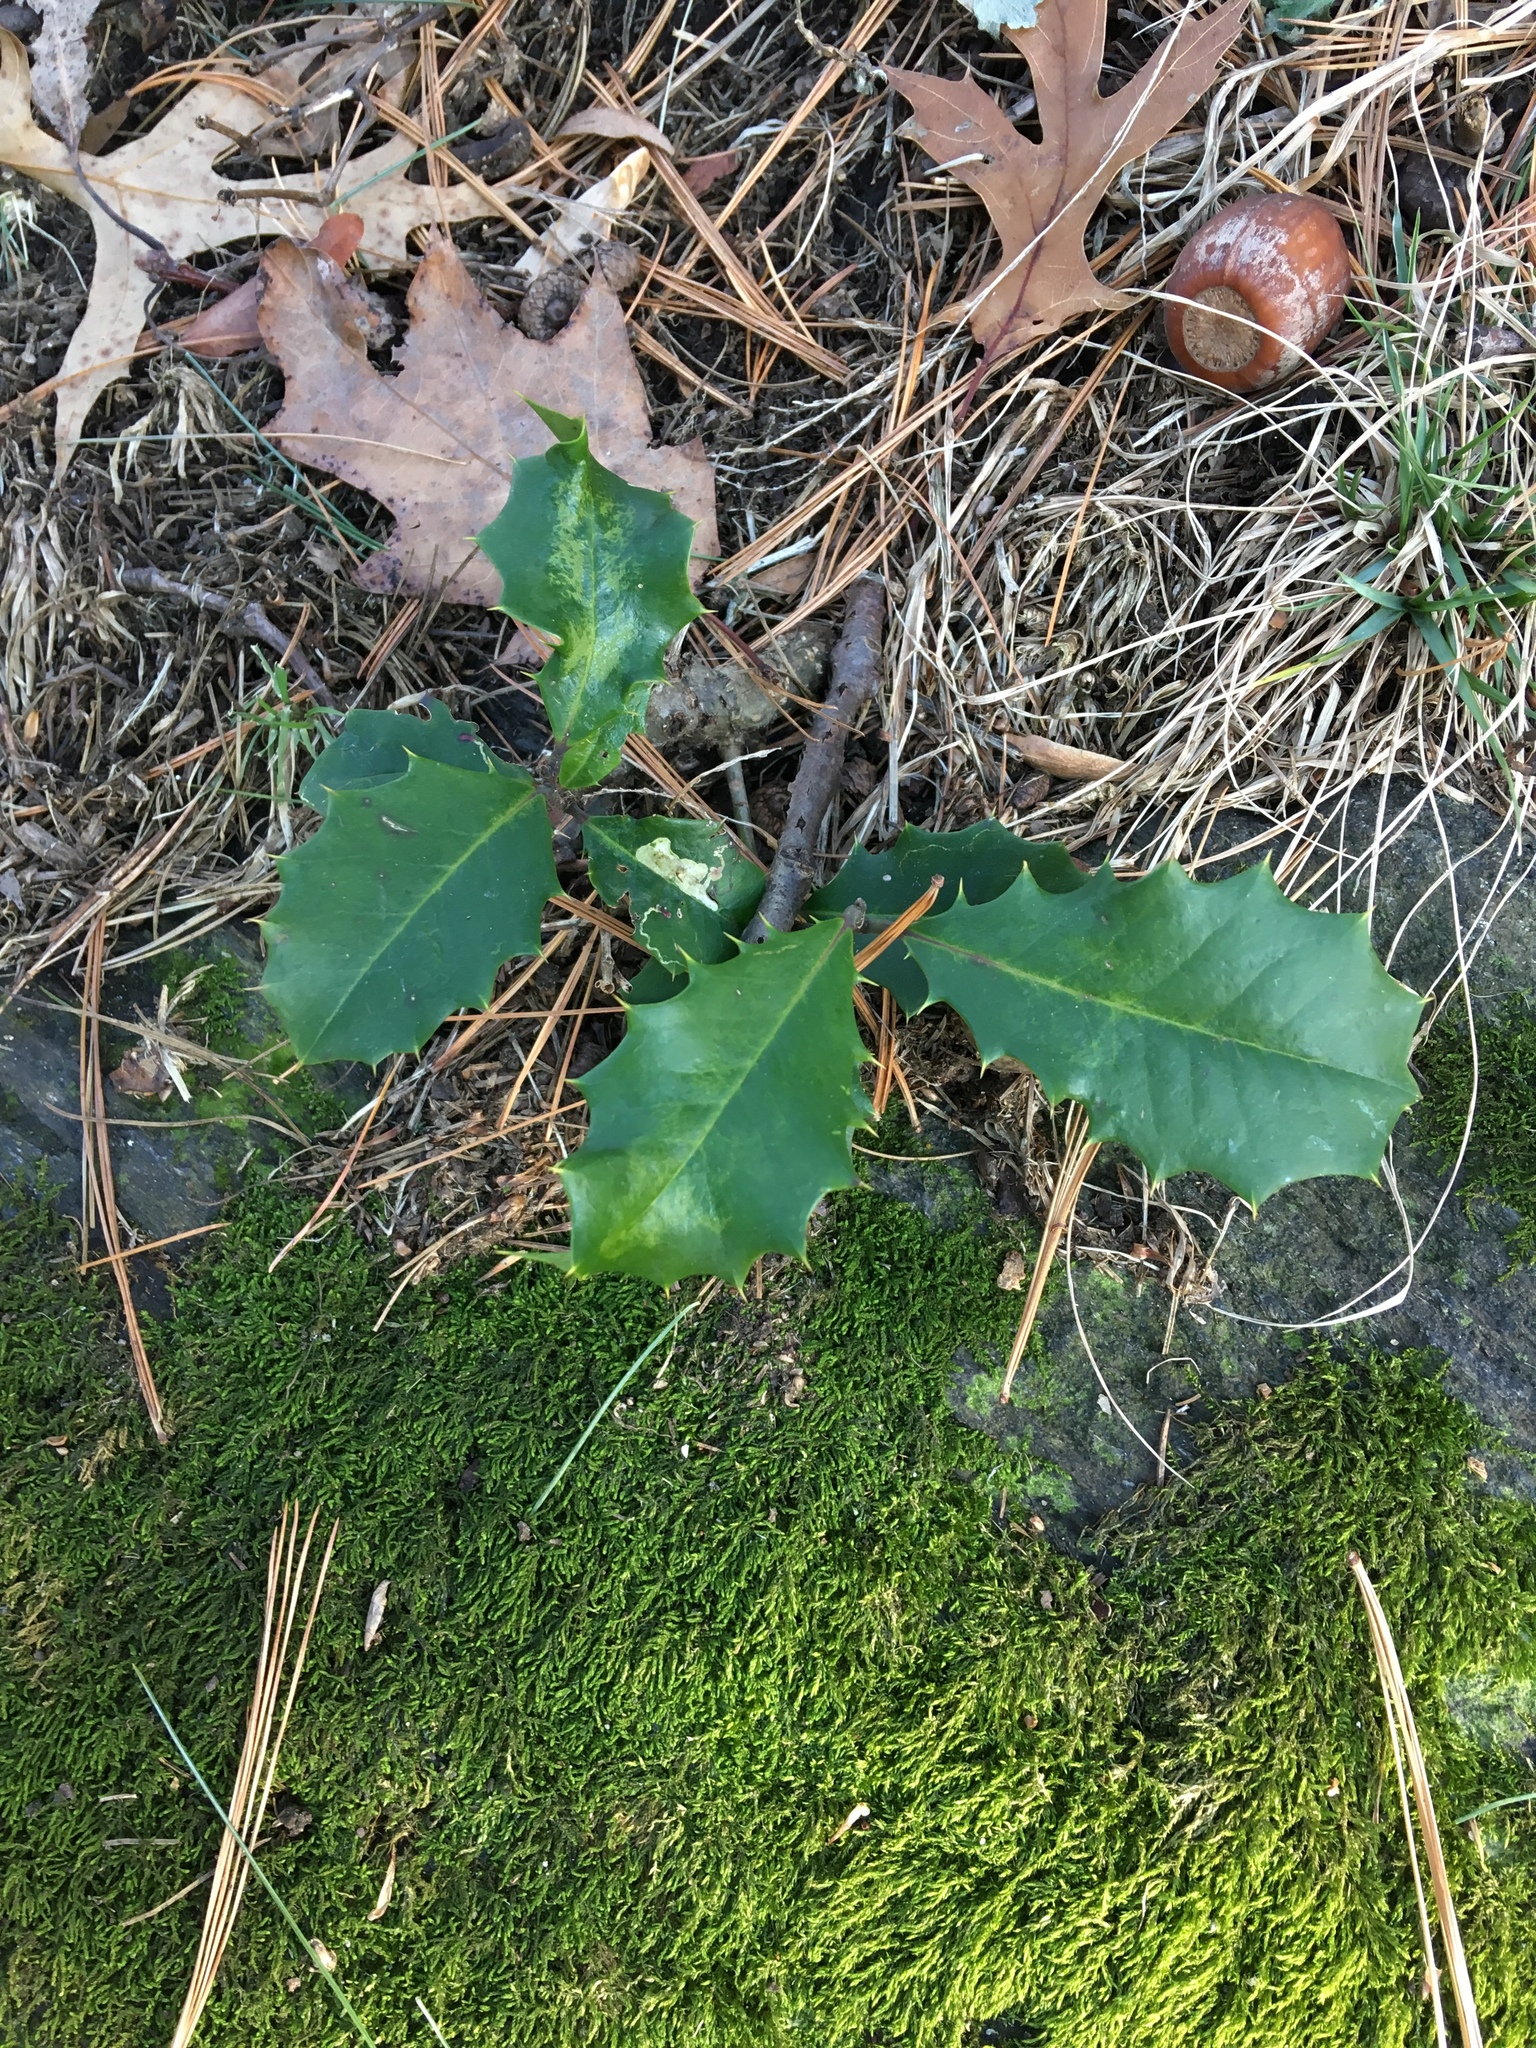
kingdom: Plantae
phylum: Tracheophyta
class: Magnoliopsida
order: Aquifoliales
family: Aquifoliaceae
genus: Ilex
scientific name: Ilex opaca
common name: American holly
